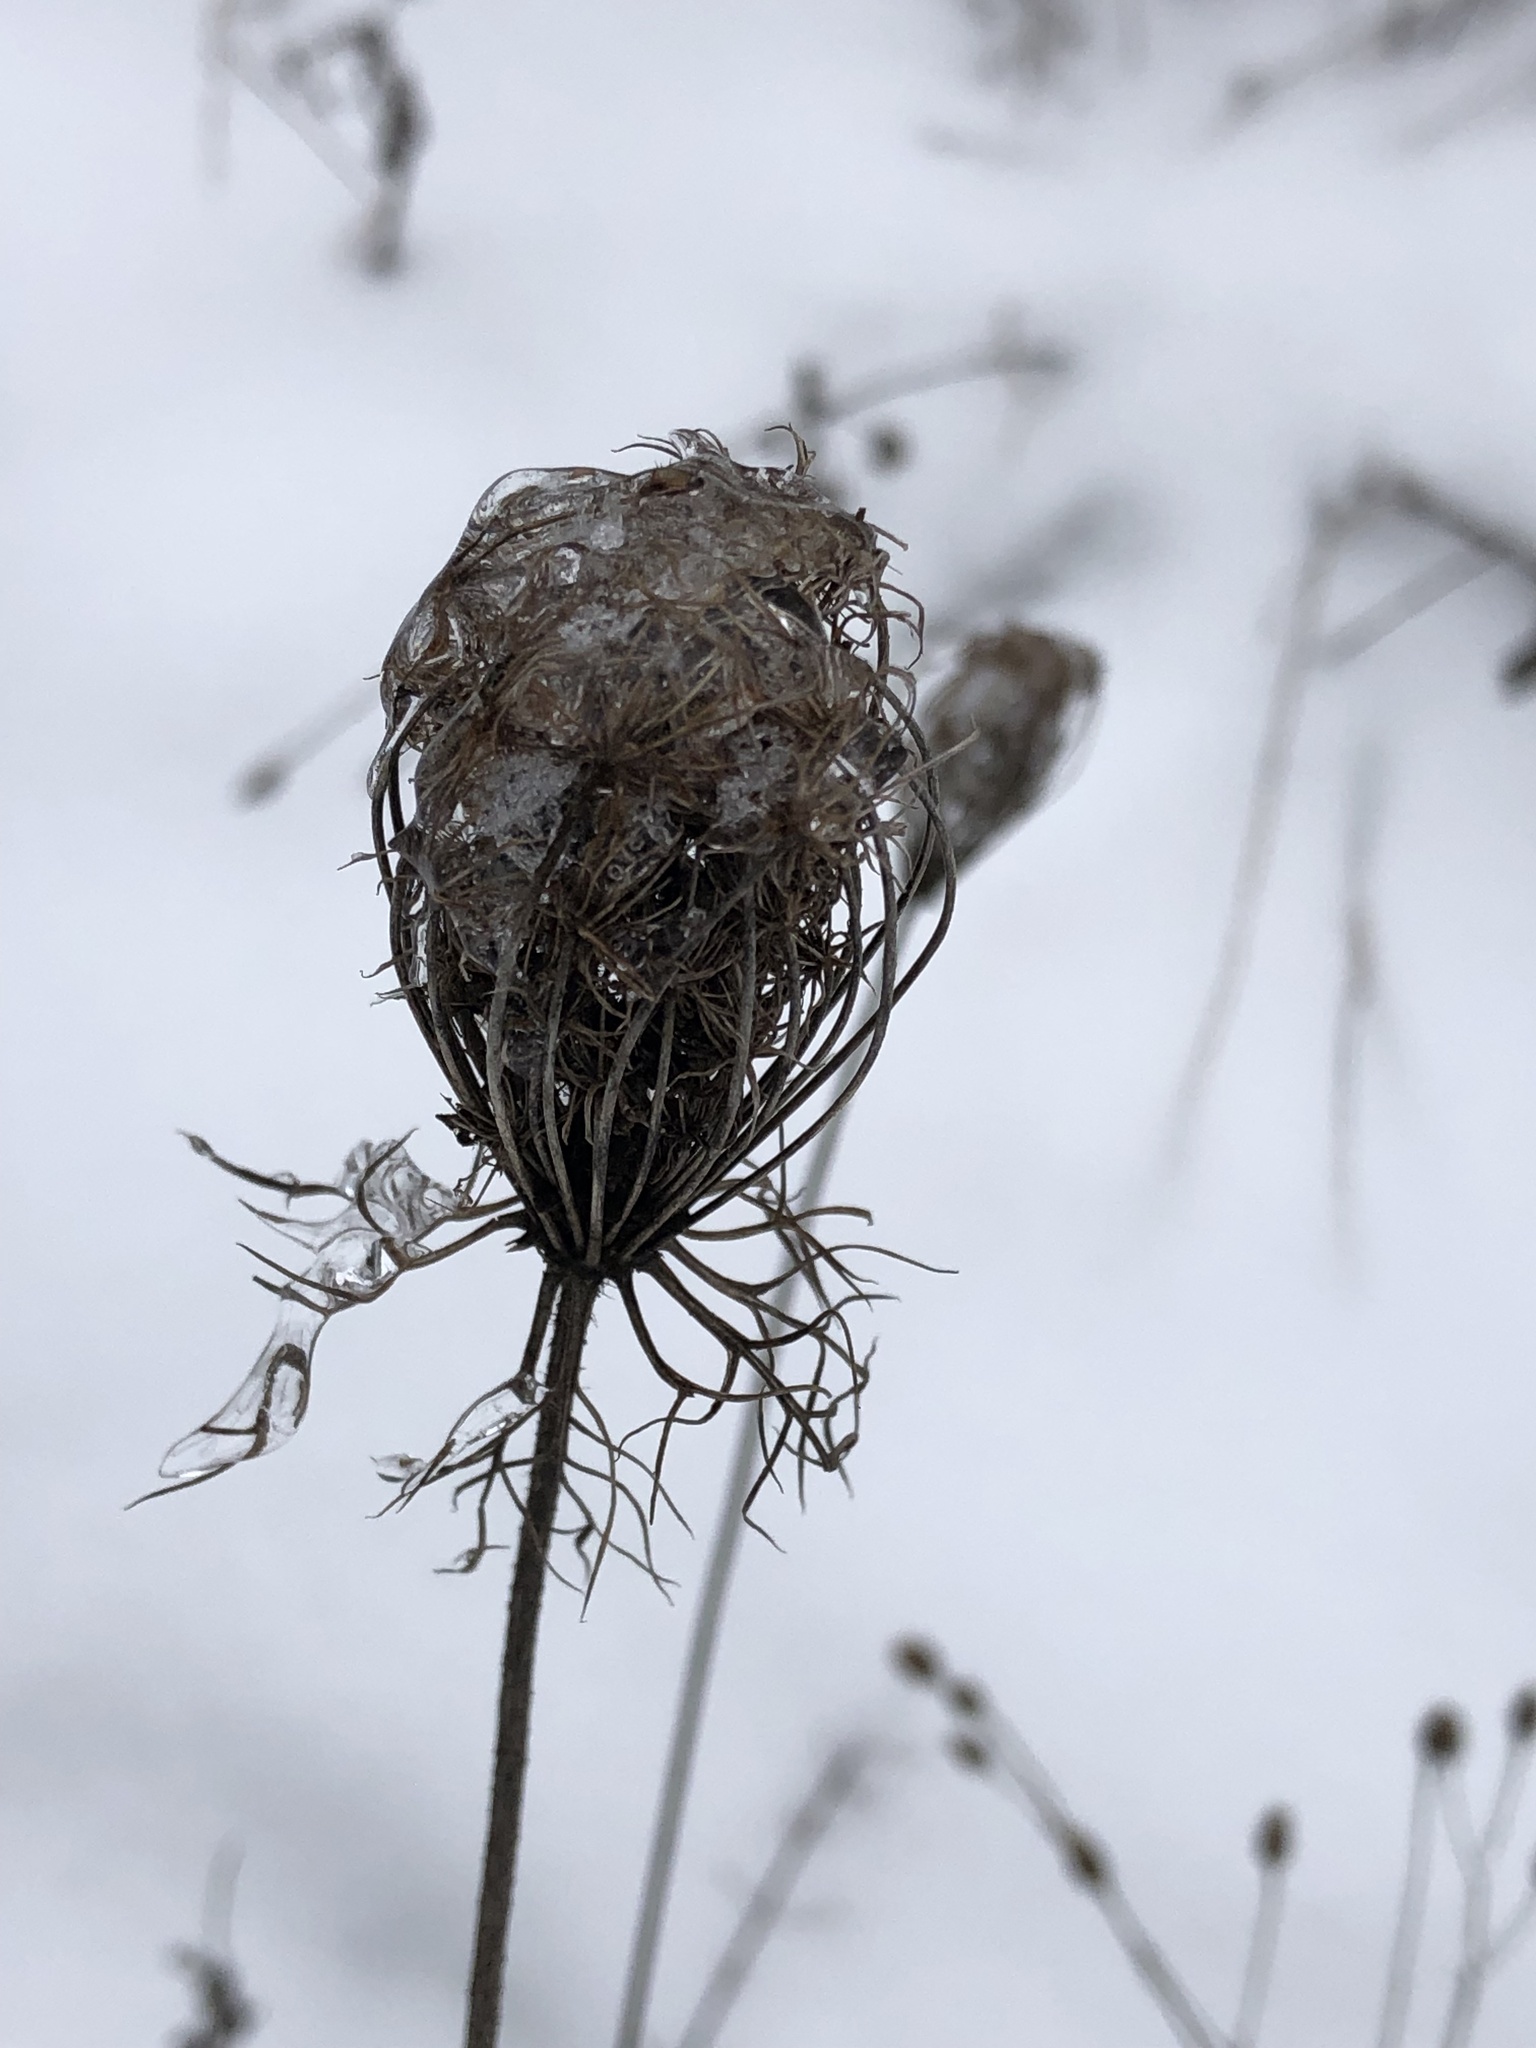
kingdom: Plantae
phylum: Tracheophyta
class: Magnoliopsida
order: Apiales
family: Apiaceae
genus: Daucus
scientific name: Daucus carota
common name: Wild carrot
